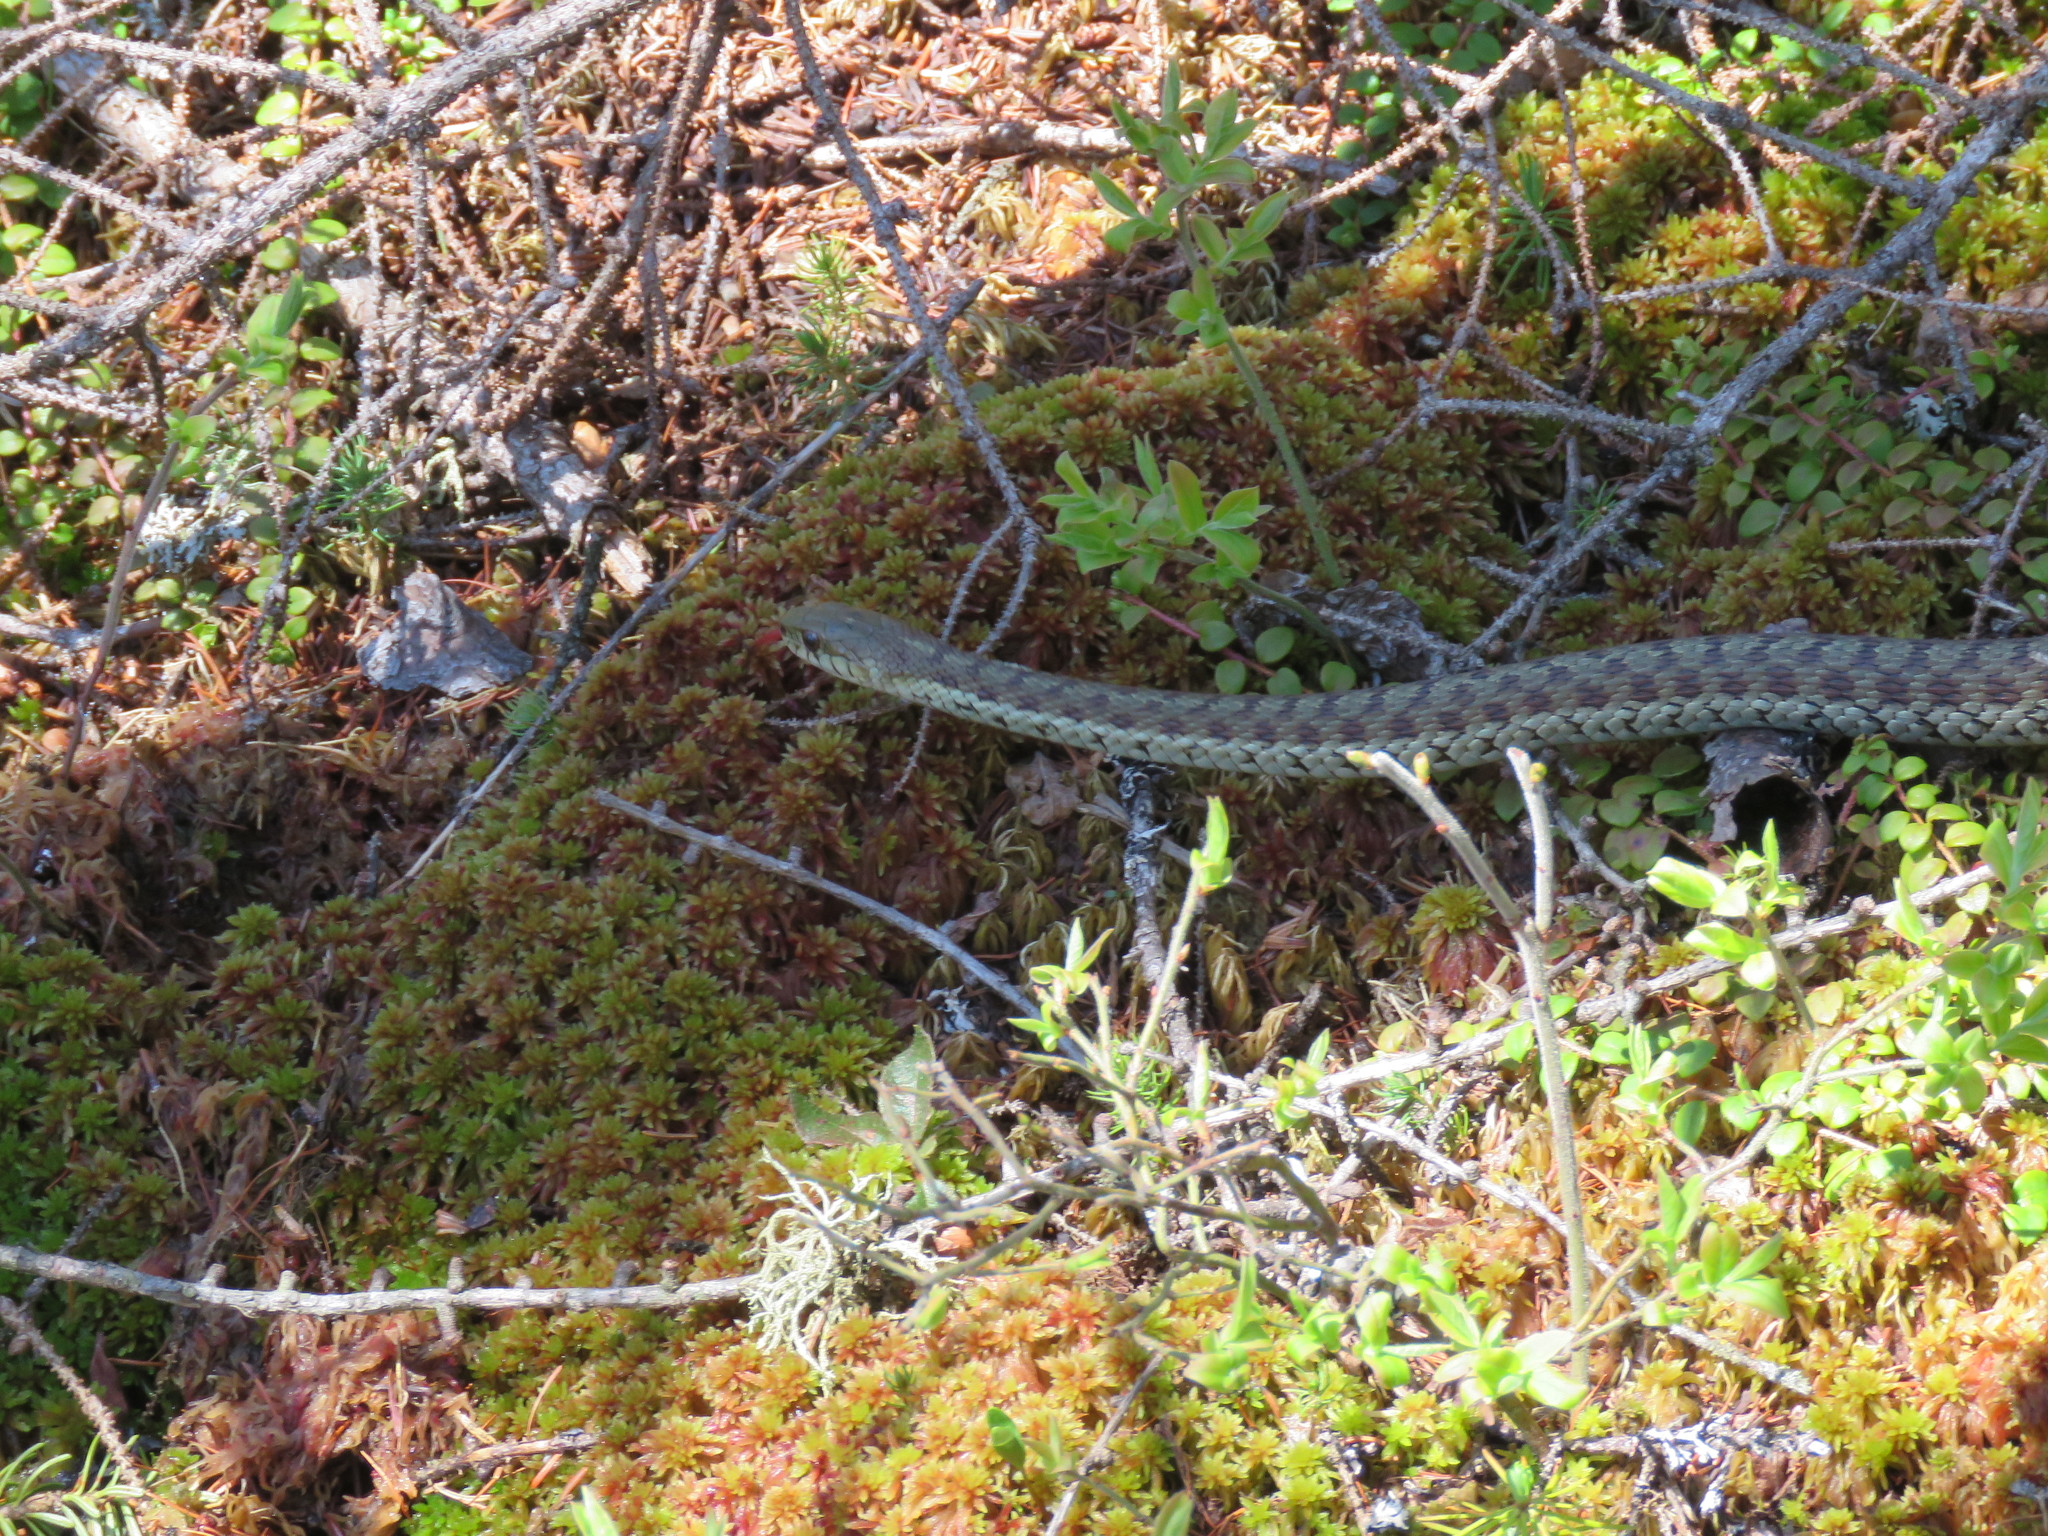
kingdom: Animalia
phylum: Chordata
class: Squamata
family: Colubridae
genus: Thamnophis
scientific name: Thamnophis sirtalis
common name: Common garter snake
